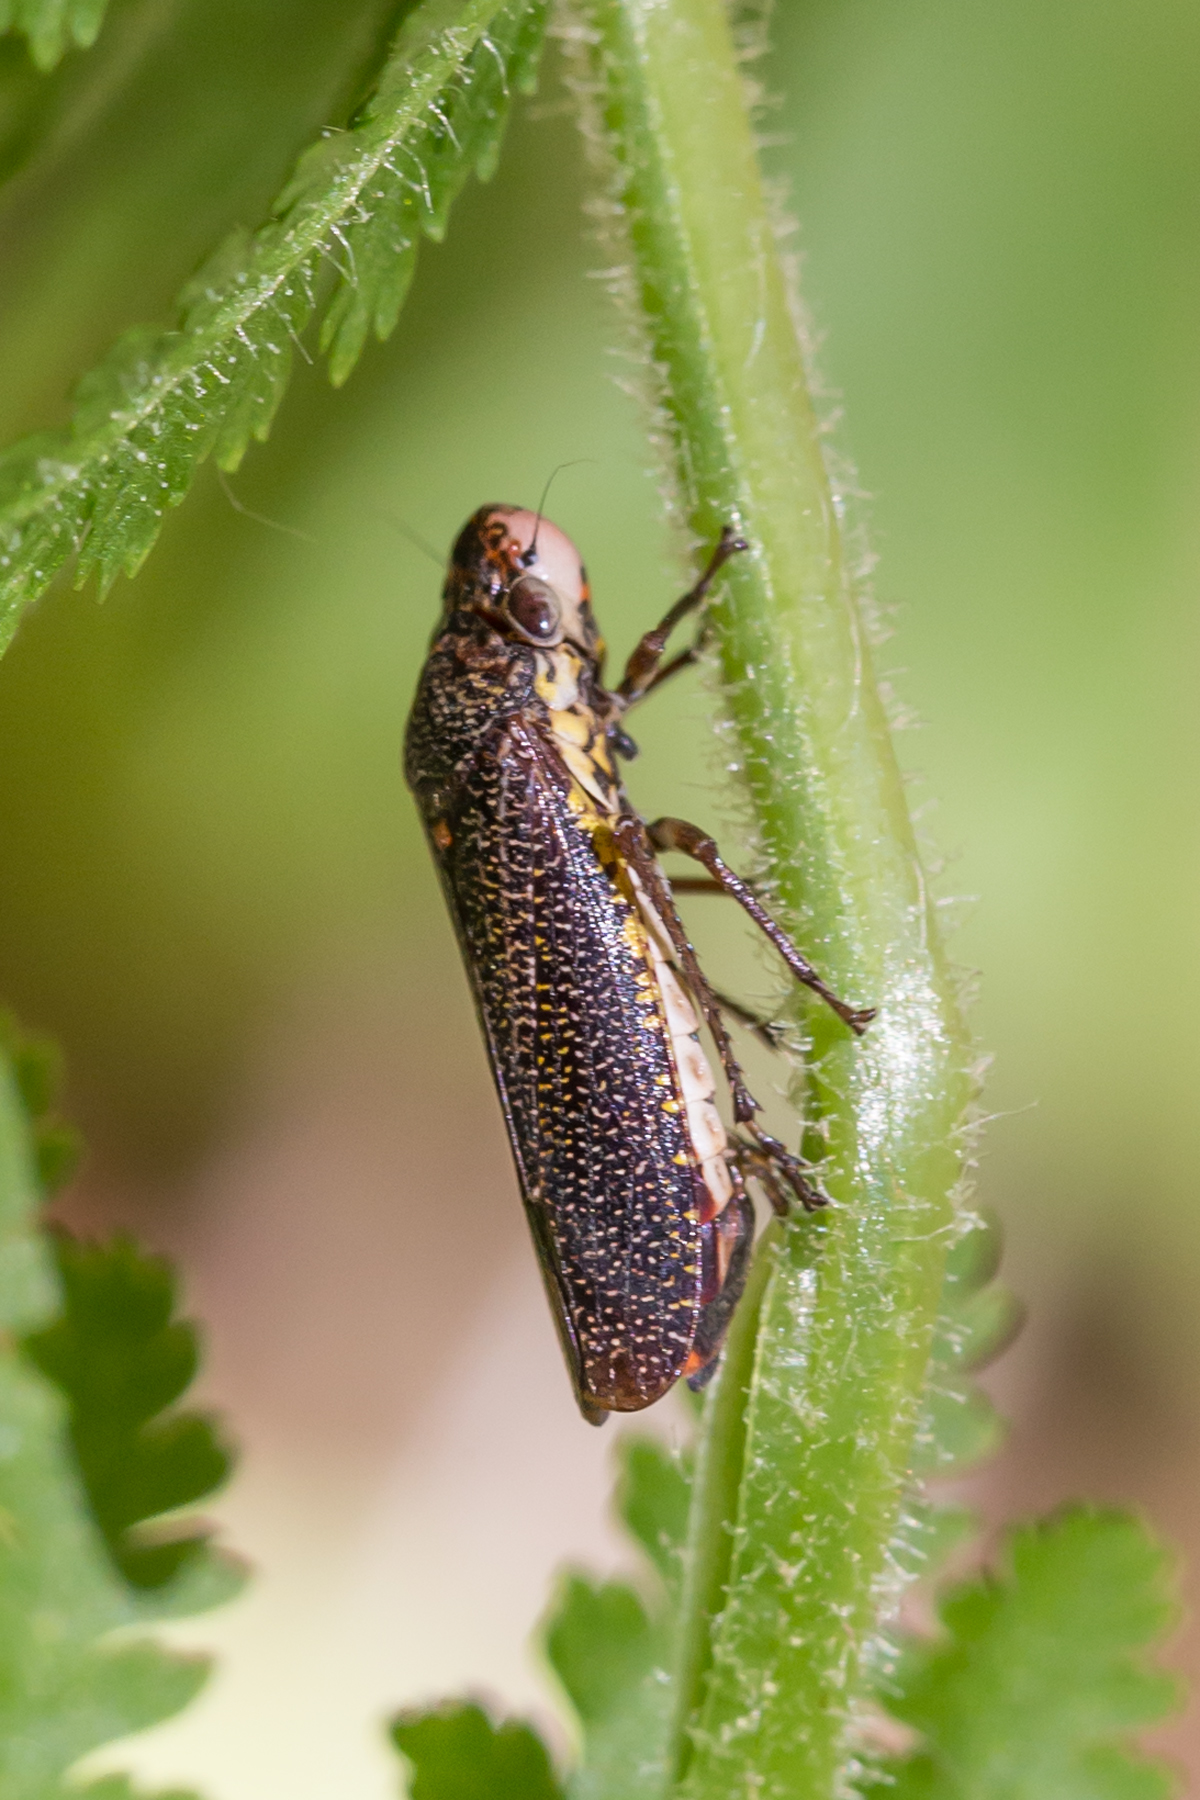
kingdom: Animalia
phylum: Arthropoda
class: Insecta
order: Hemiptera
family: Cicadellidae
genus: Paraulacizes
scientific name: Paraulacizes irrorata
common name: Speckled sharpshooter
